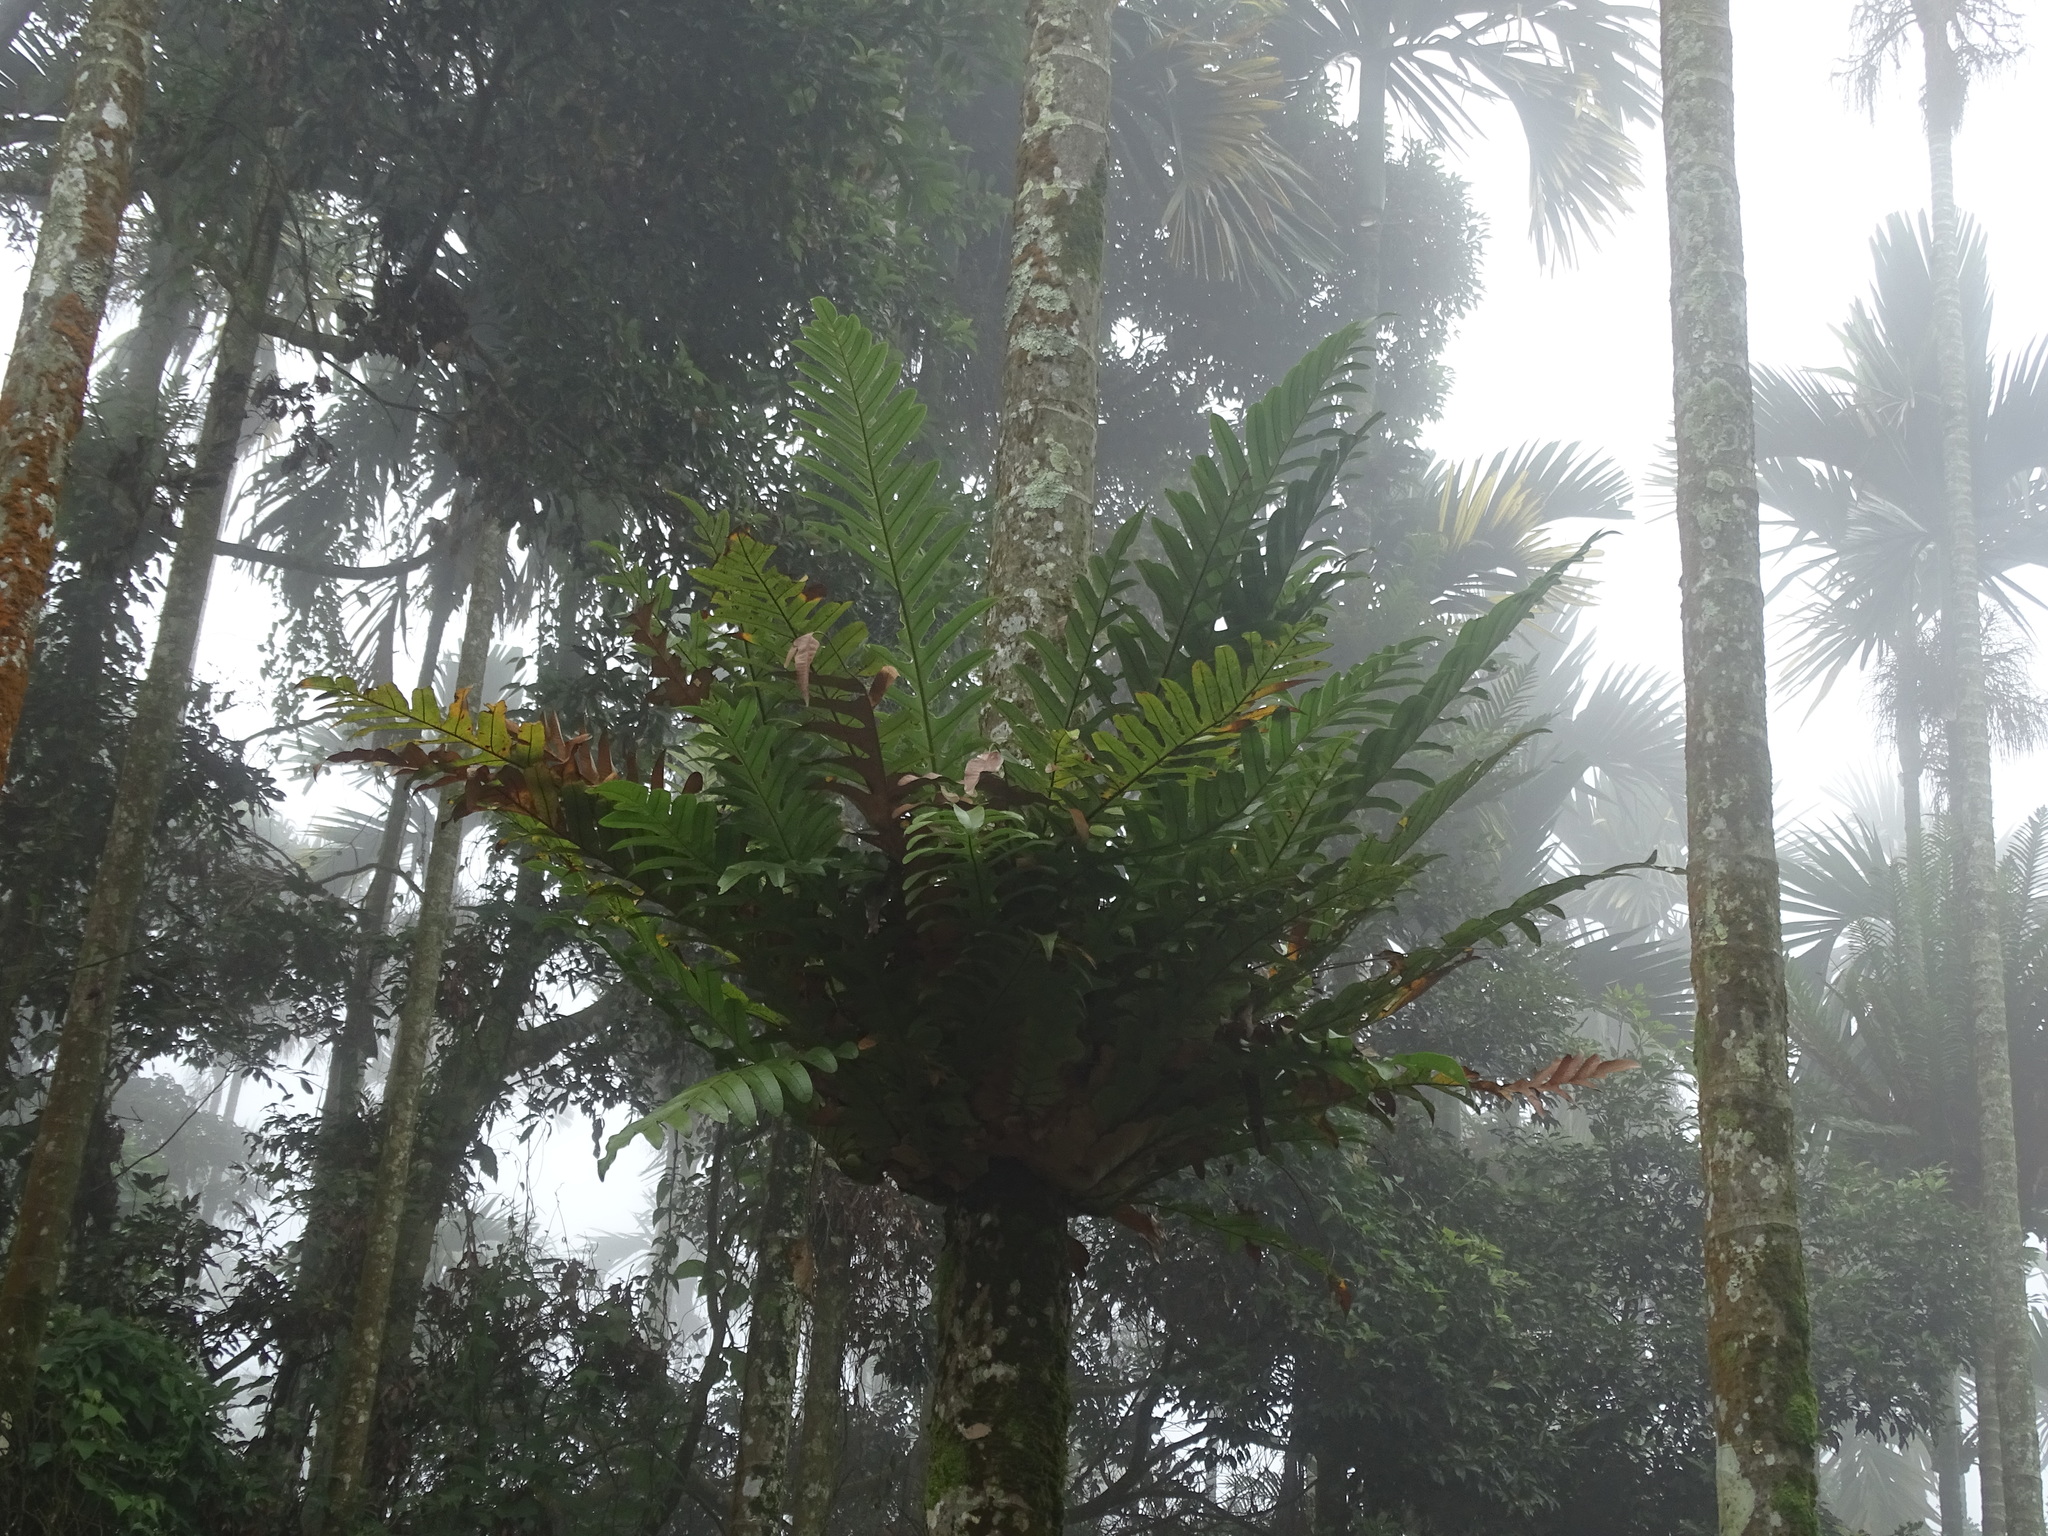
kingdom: Plantae
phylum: Tracheophyta
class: Polypodiopsida
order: Polypodiales
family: Polypodiaceae
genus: Drynaria
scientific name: Drynaria coronans
